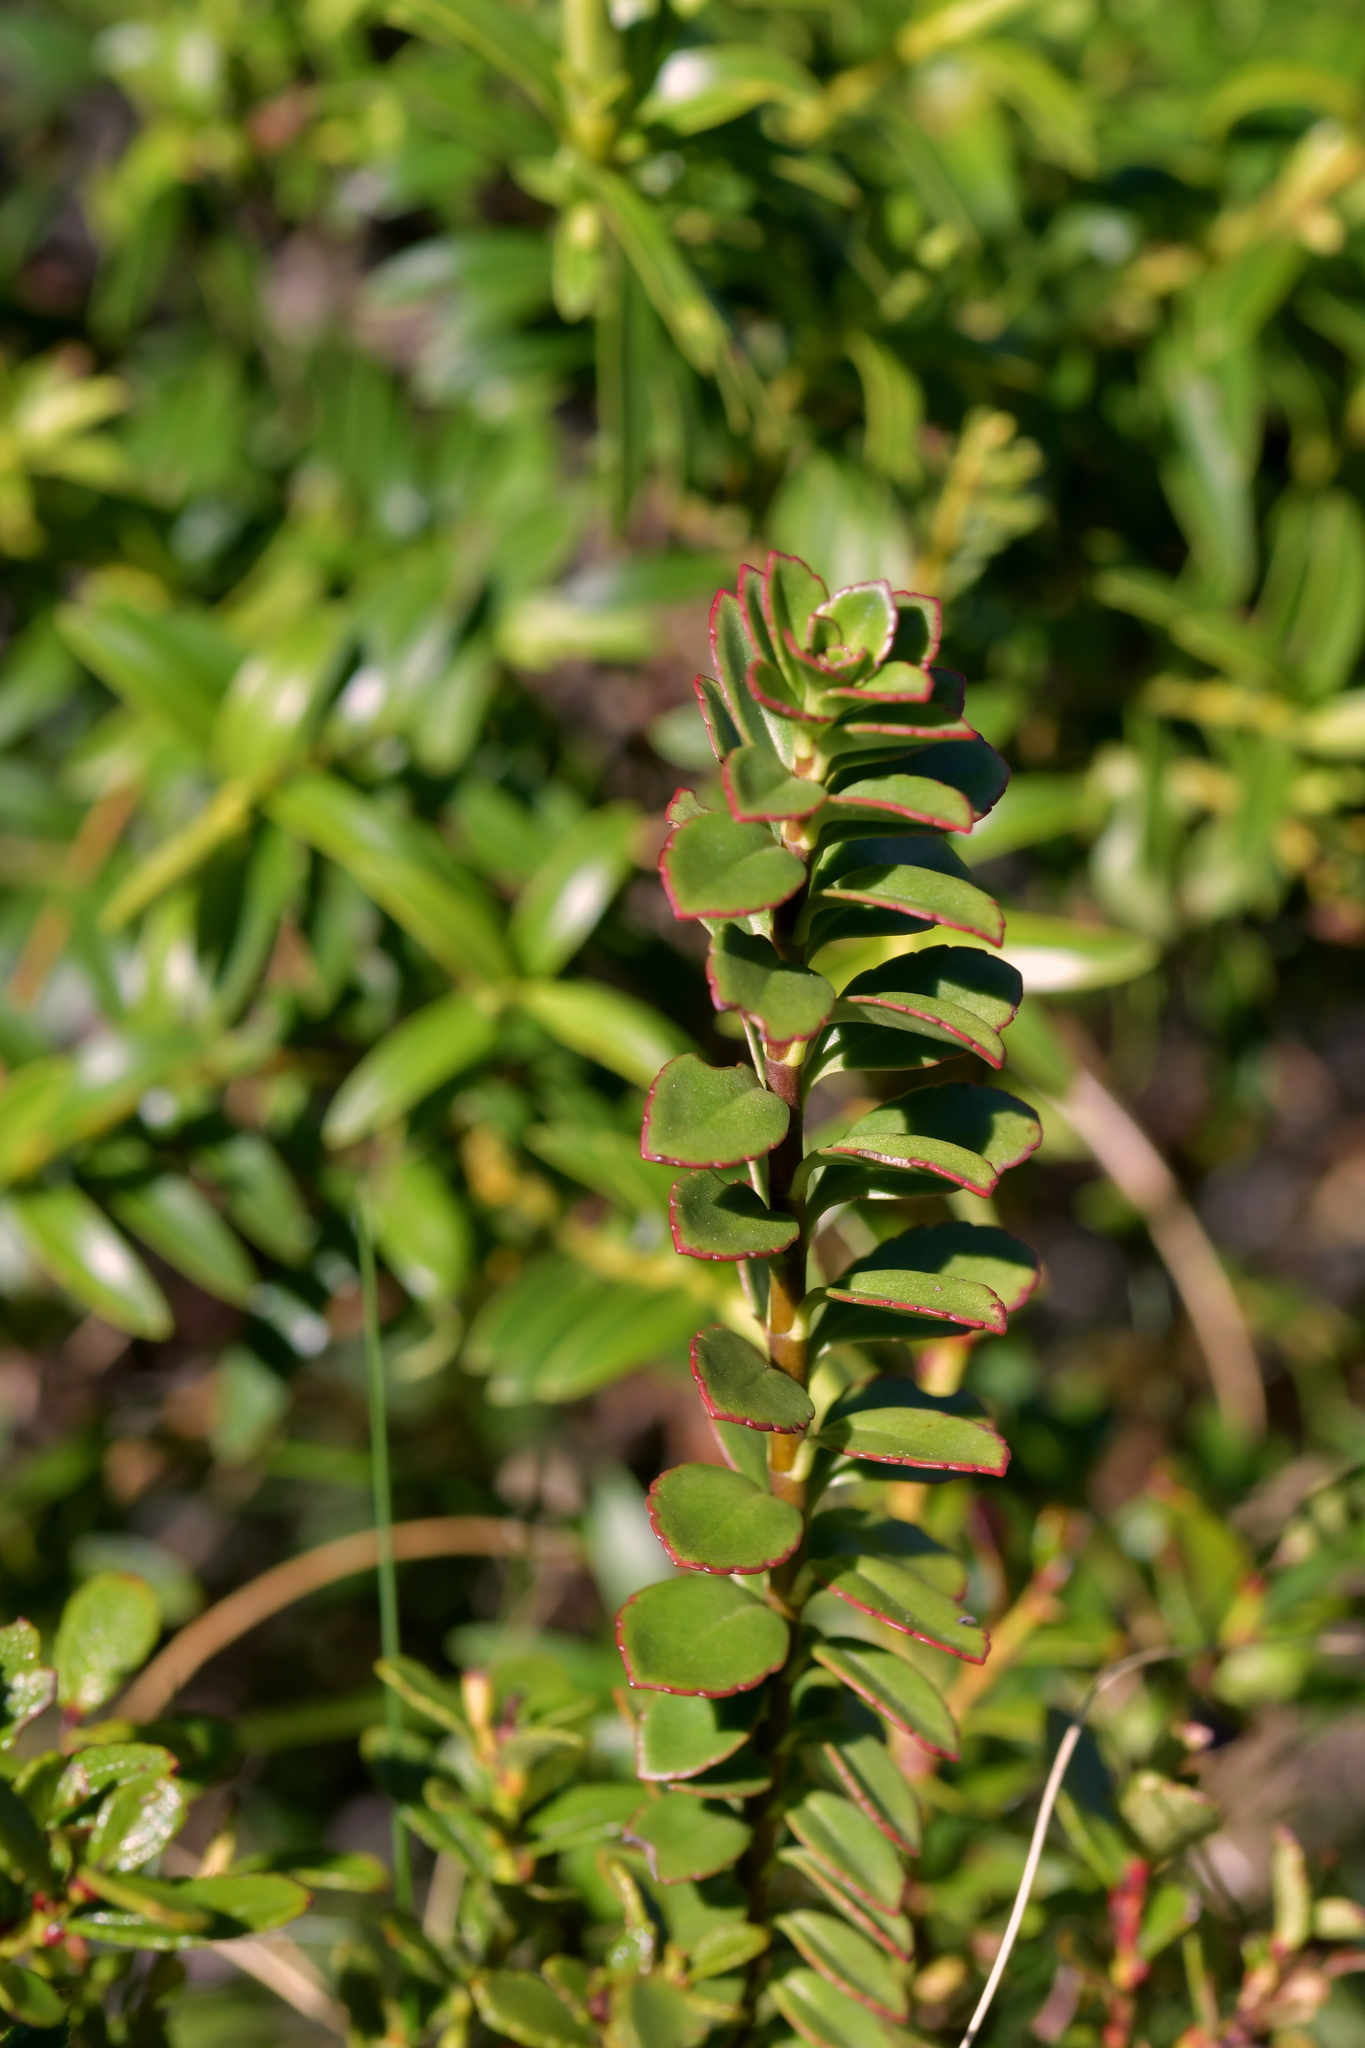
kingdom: Plantae
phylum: Tracheophyta
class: Magnoliopsida
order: Lamiales
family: Plantaginaceae
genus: Veronica
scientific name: Veronica macrantha
